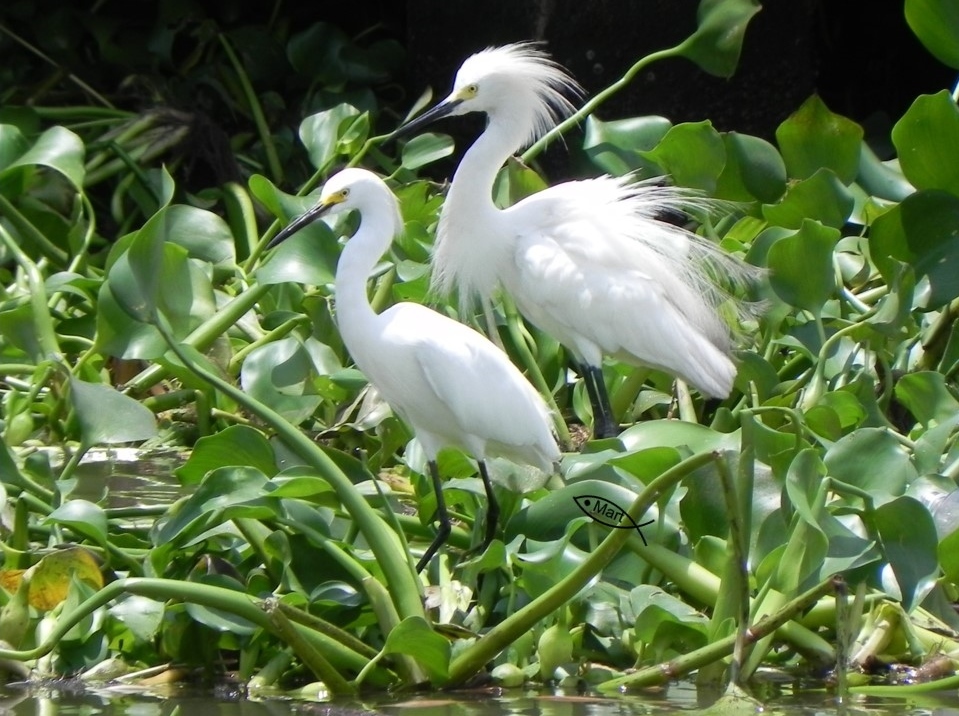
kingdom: Animalia
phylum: Chordata
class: Aves
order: Pelecaniformes
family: Ardeidae
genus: Egretta
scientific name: Egretta thula
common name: Snowy egret
